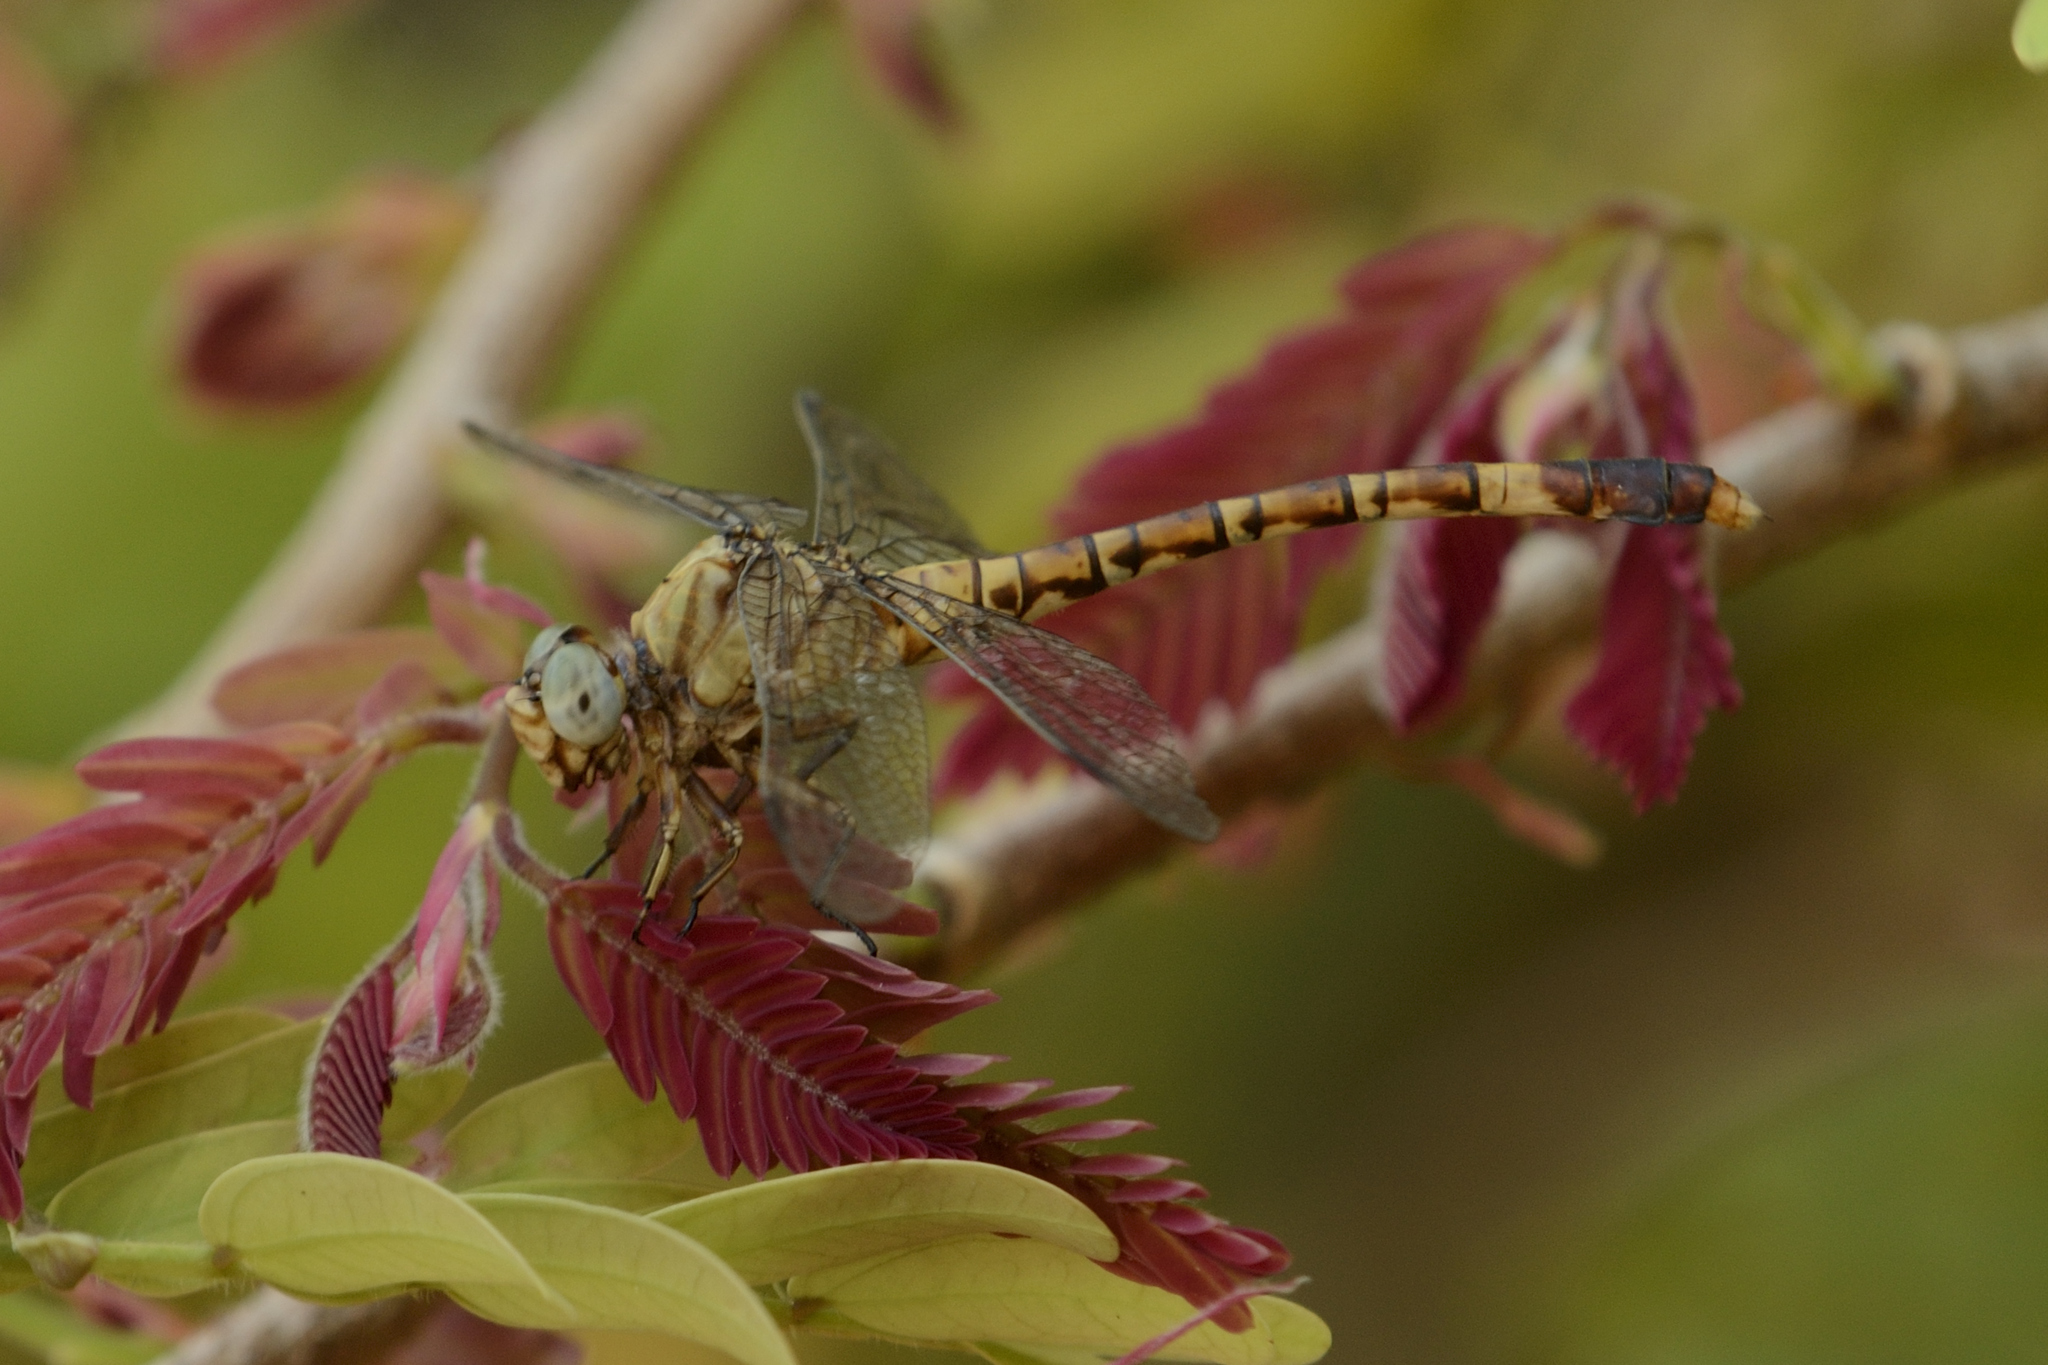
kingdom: Animalia
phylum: Arthropoda
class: Insecta
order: Odonata
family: Gomphidae
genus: Paragomphus
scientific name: Paragomphus nyasicus
